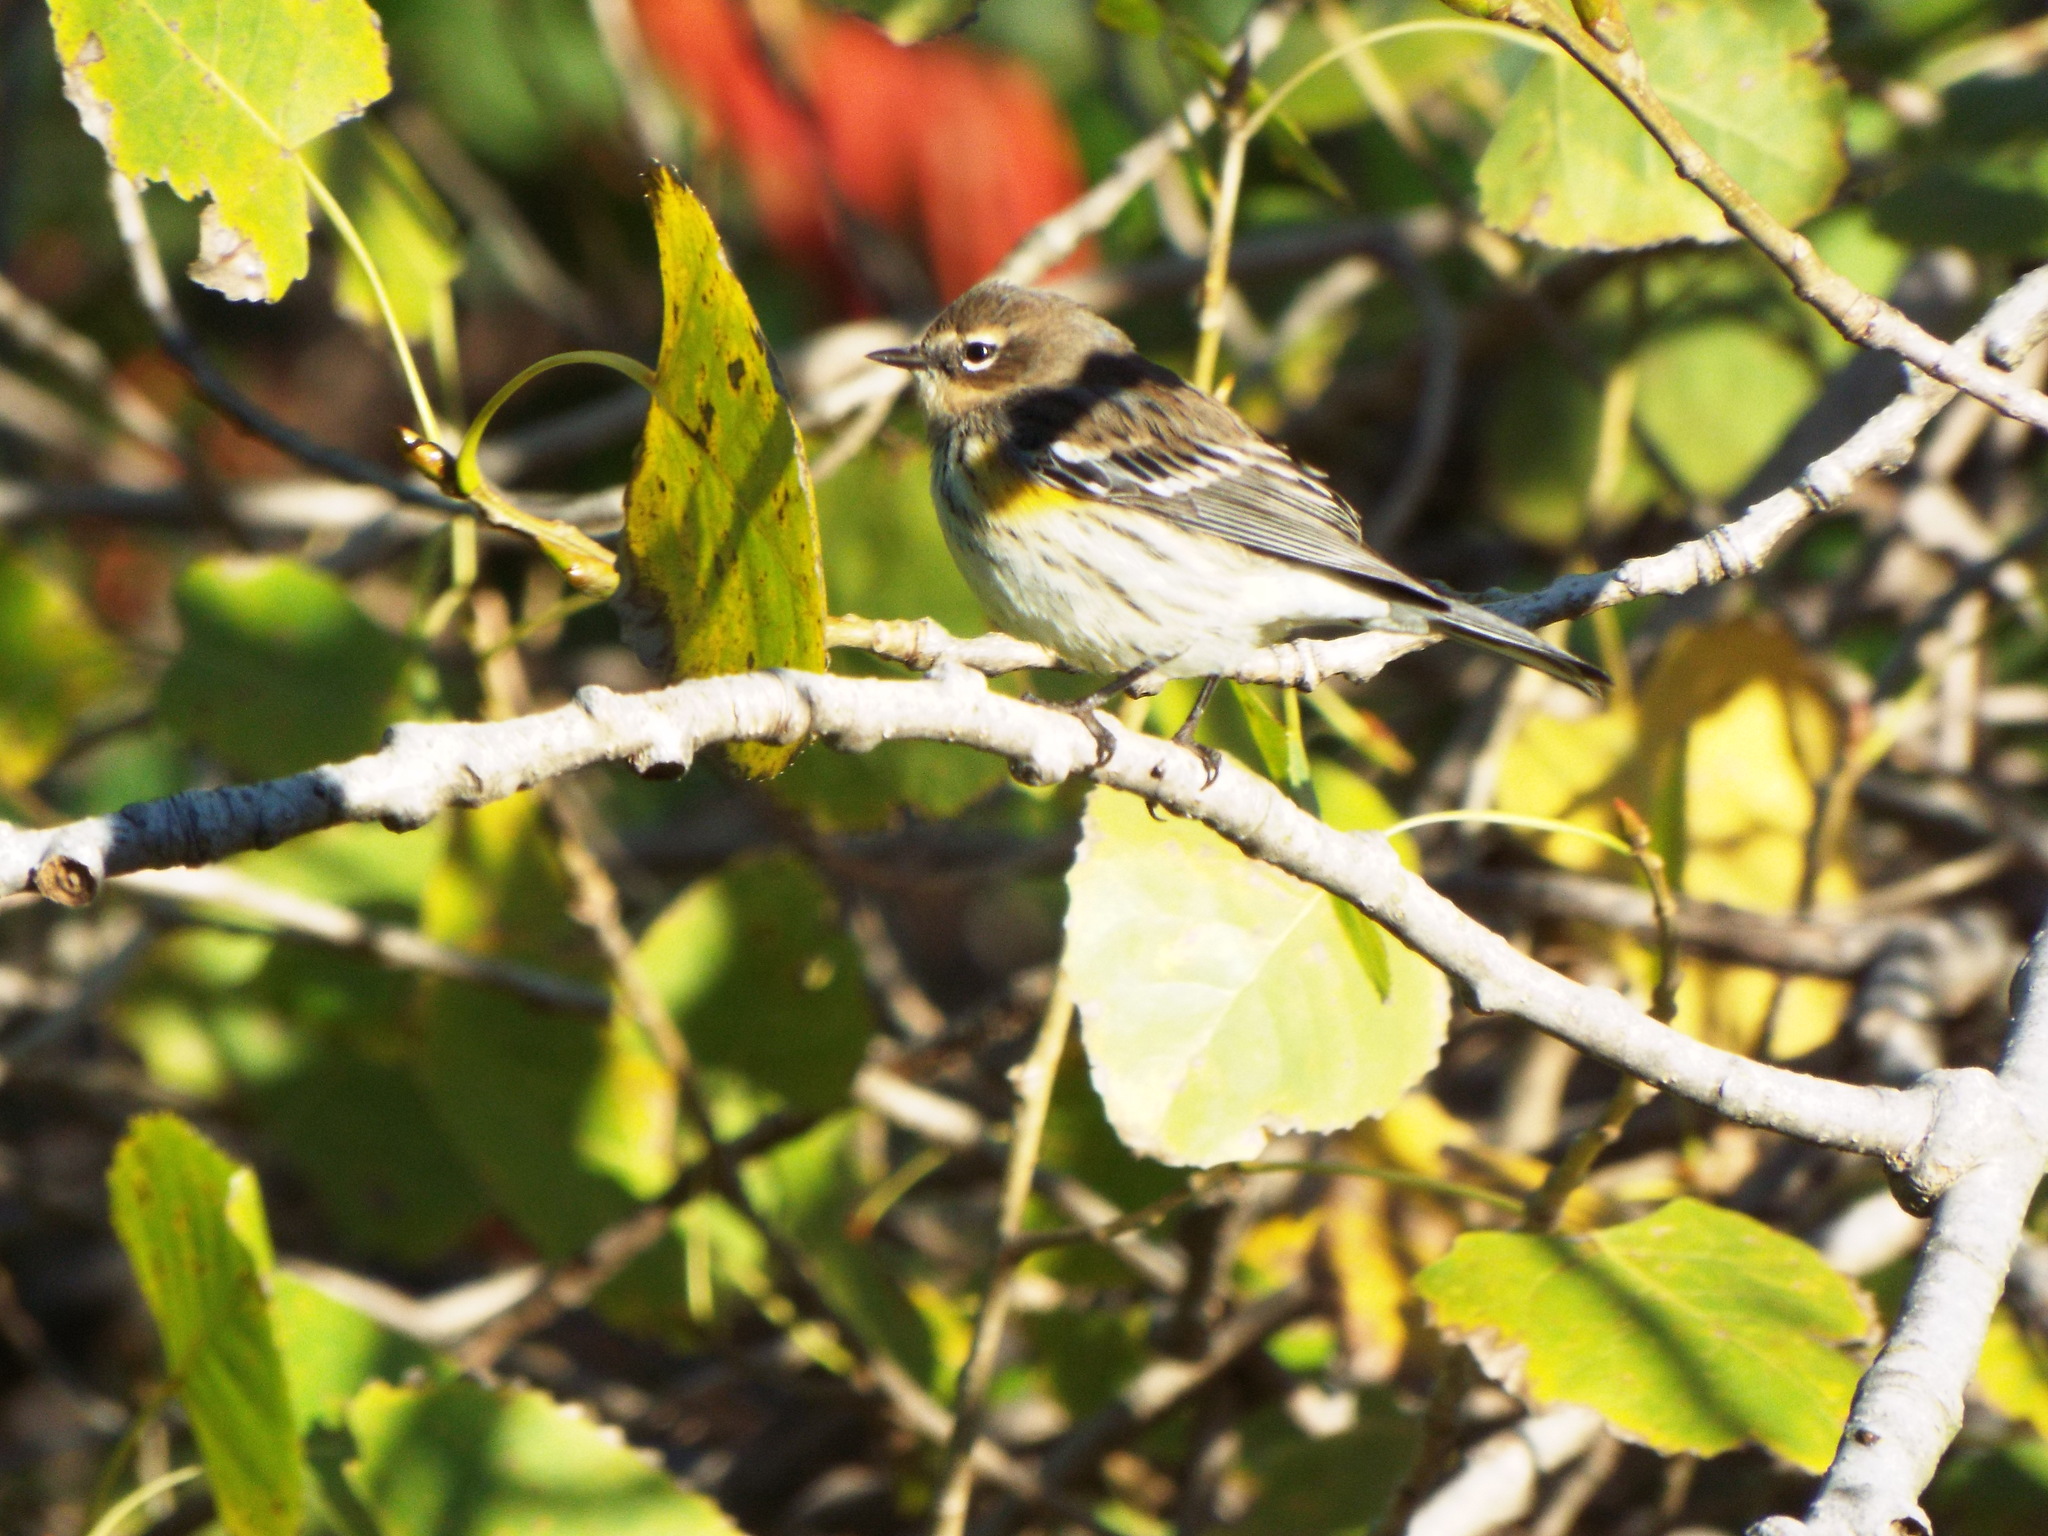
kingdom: Animalia
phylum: Chordata
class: Aves
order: Passeriformes
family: Parulidae
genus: Setophaga
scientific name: Setophaga coronata
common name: Myrtle warbler
